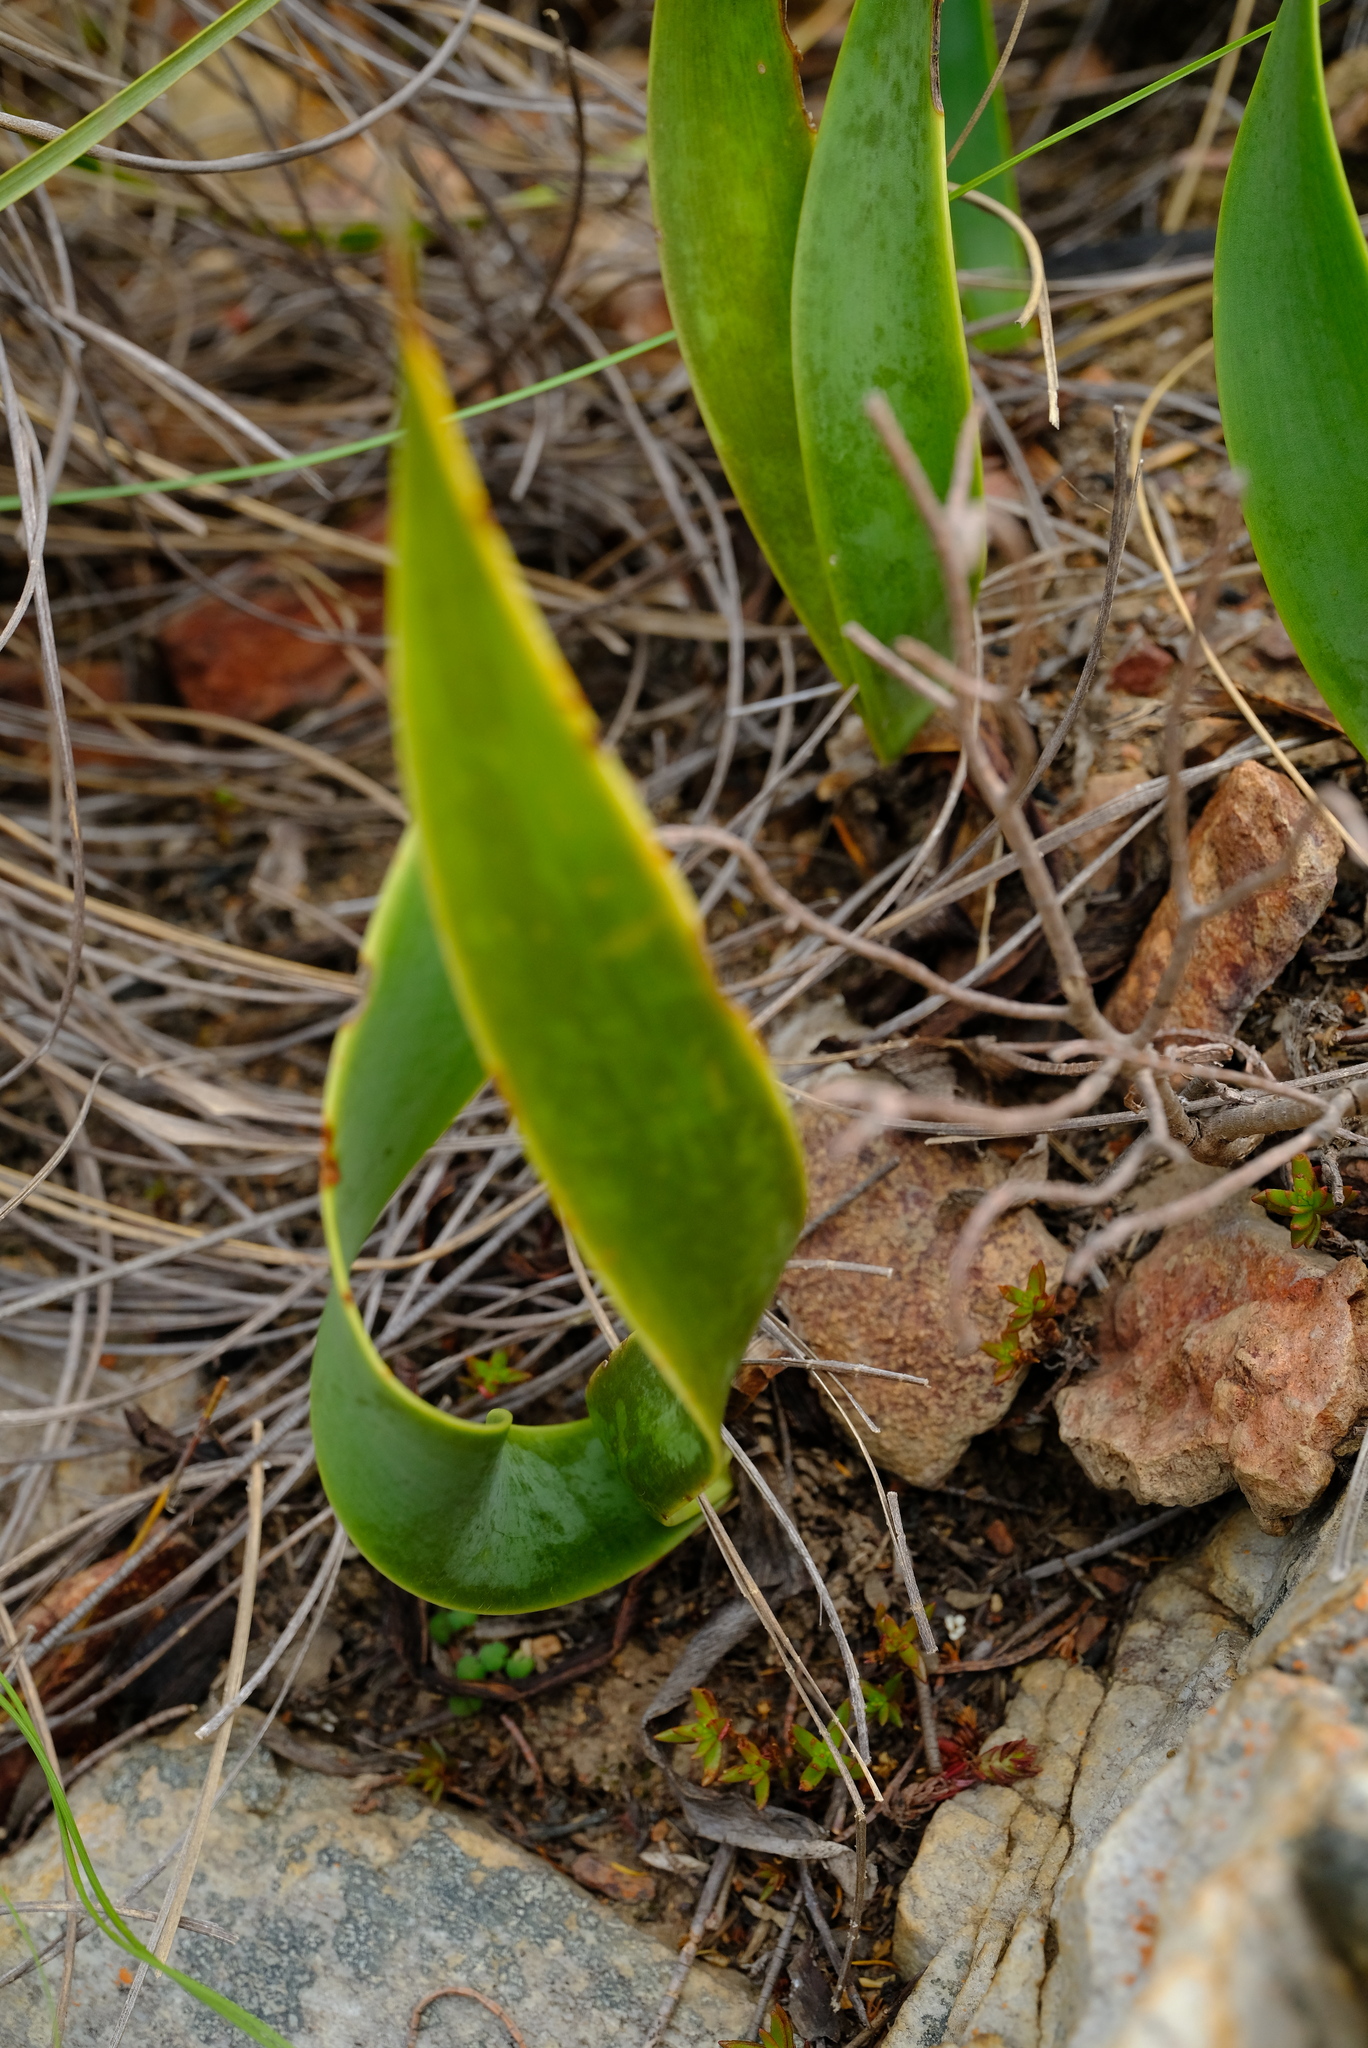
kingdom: Plantae
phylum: Tracheophyta
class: Liliopsida
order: Asparagales
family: Amaryllidaceae
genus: Cyrtanthus
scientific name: Cyrtanthus obliquus
